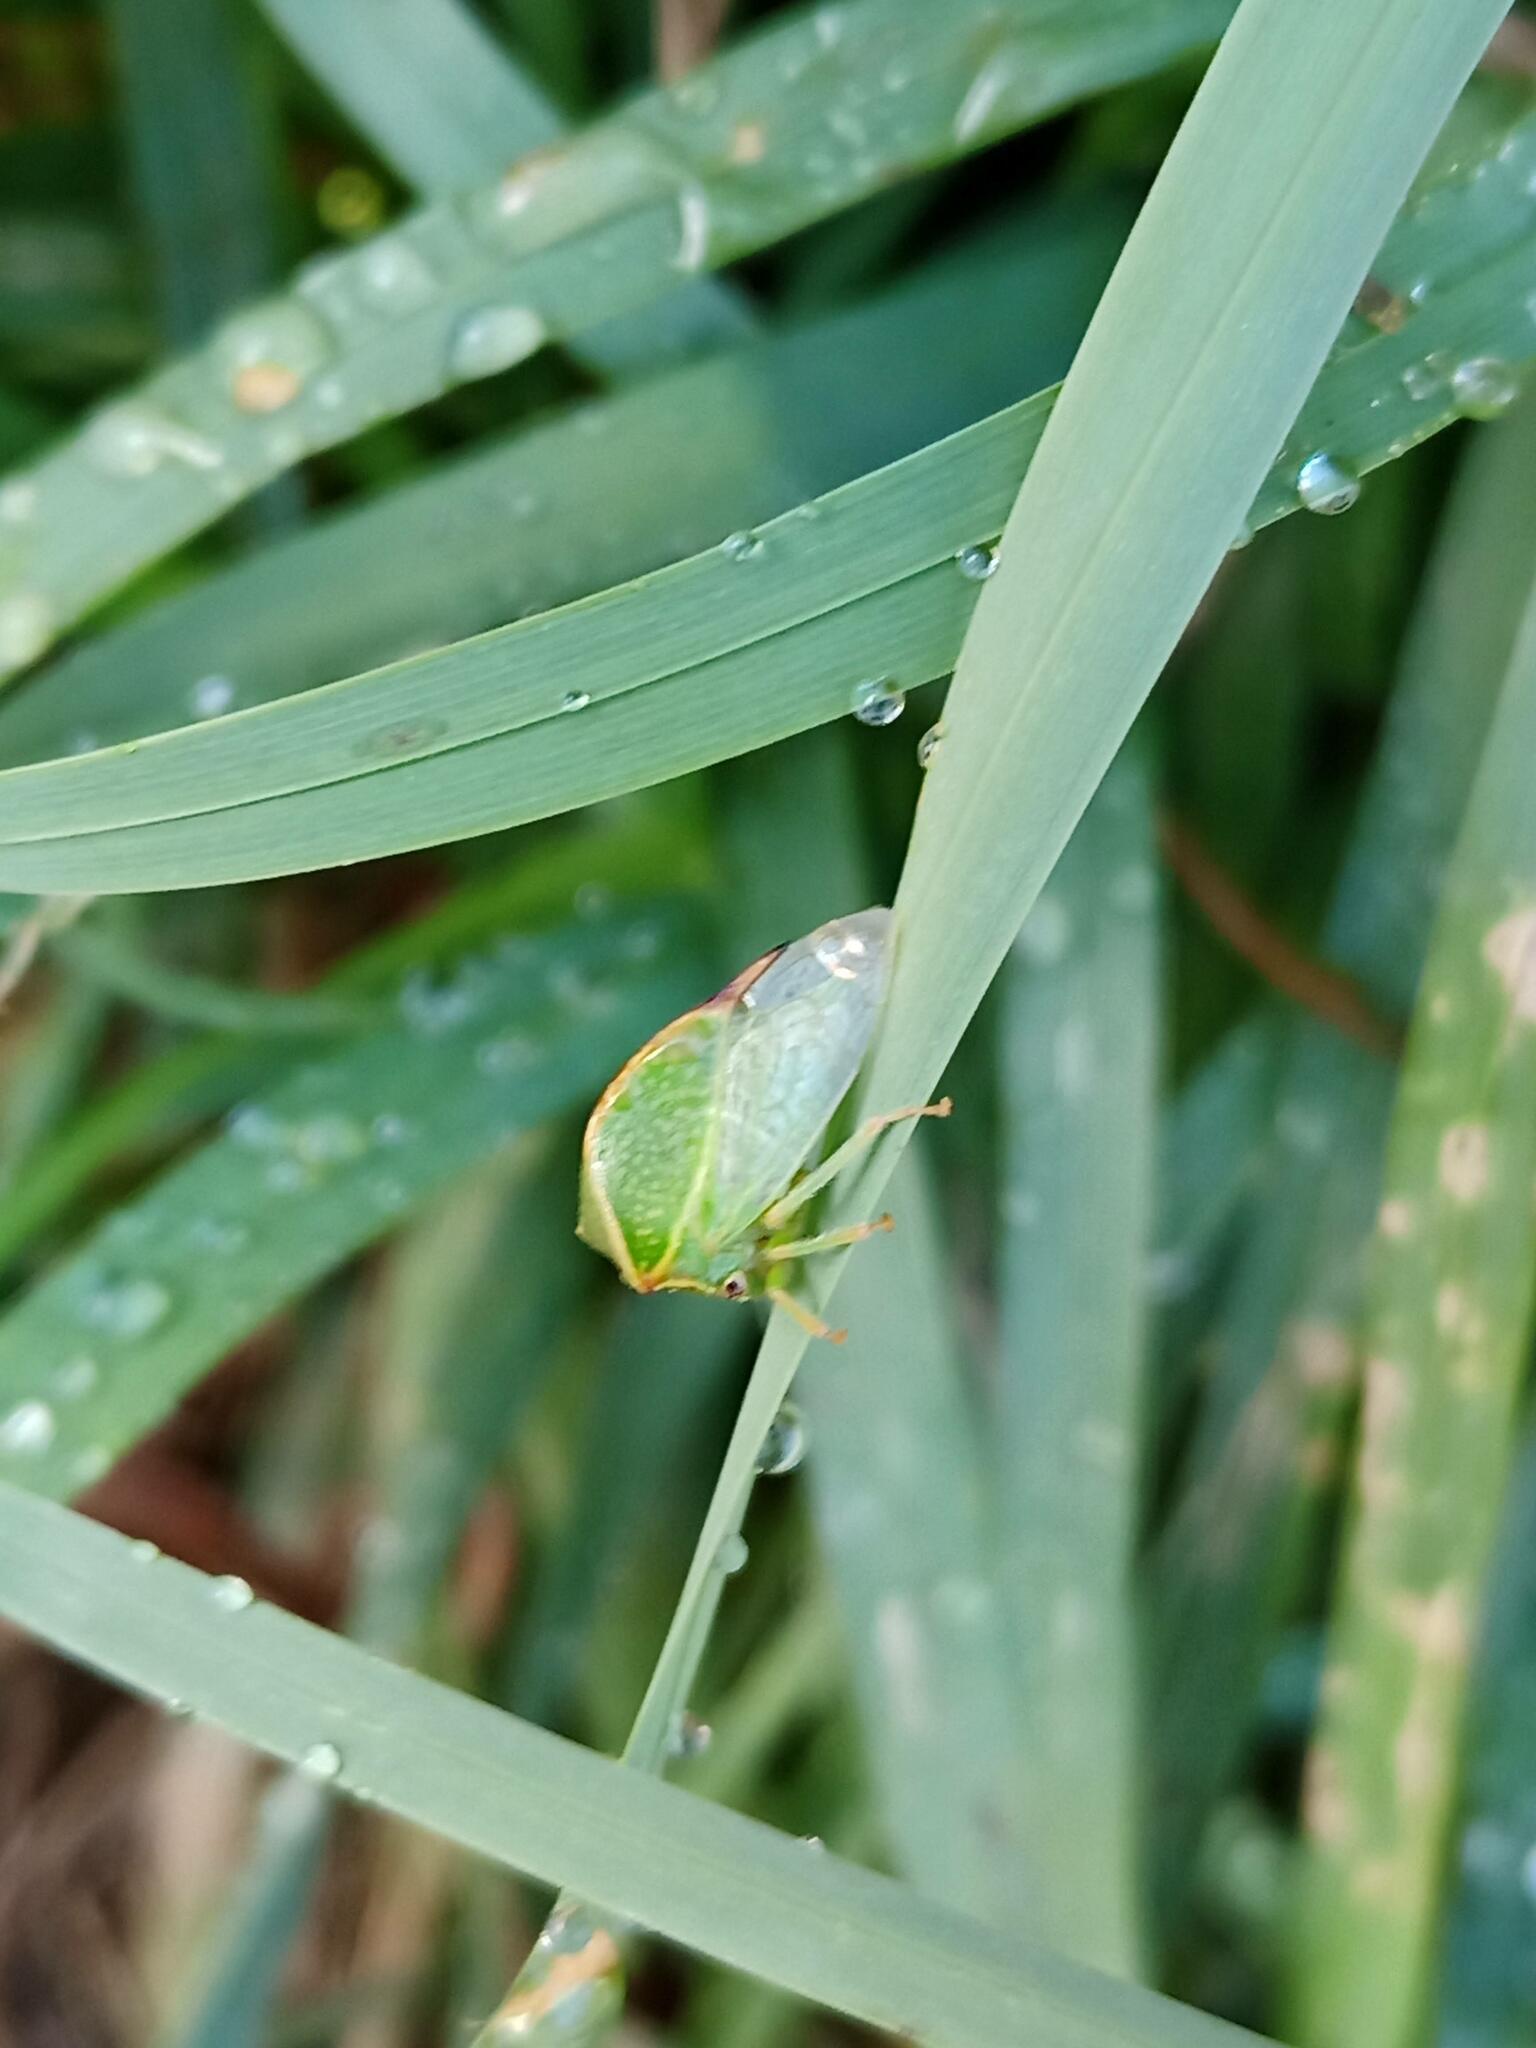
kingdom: Animalia
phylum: Arthropoda
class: Insecta
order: Hemiptera
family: Membracidae
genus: Stictocephala
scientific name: Stictocephala bisonia
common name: American buffalo treehopper
